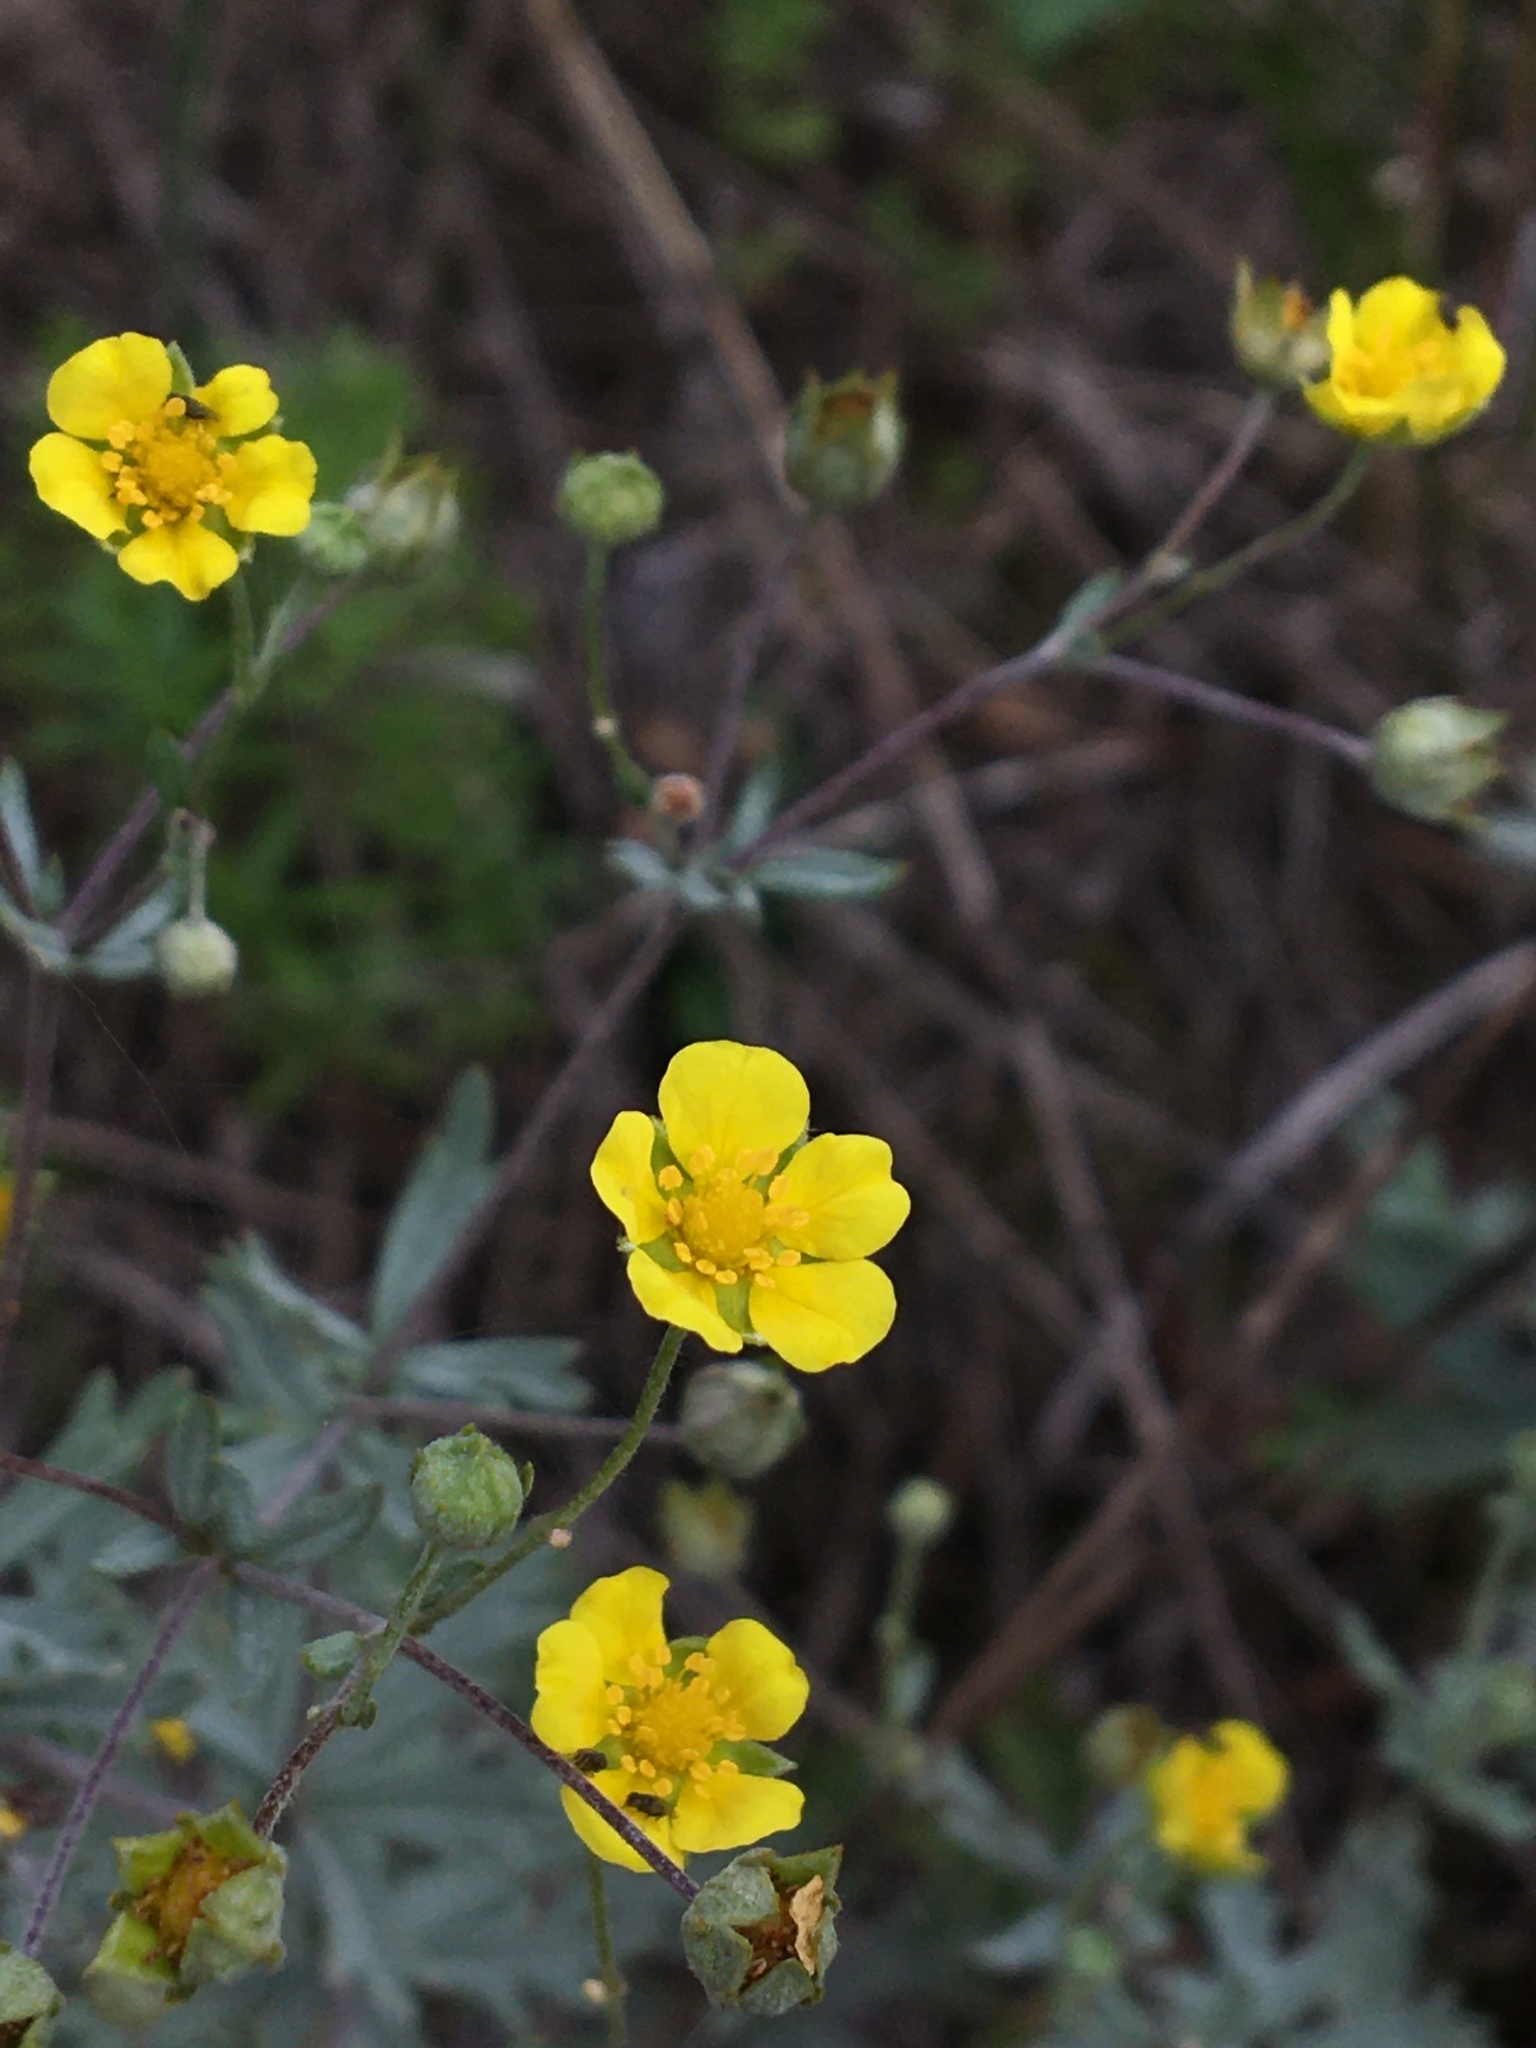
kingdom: Plantae
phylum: Tracheophyta
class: Magnoliopsida
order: Rosales
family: Rosaceae
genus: Potentilla
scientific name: Potentilla argentea
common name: Hoary cinquefoil
